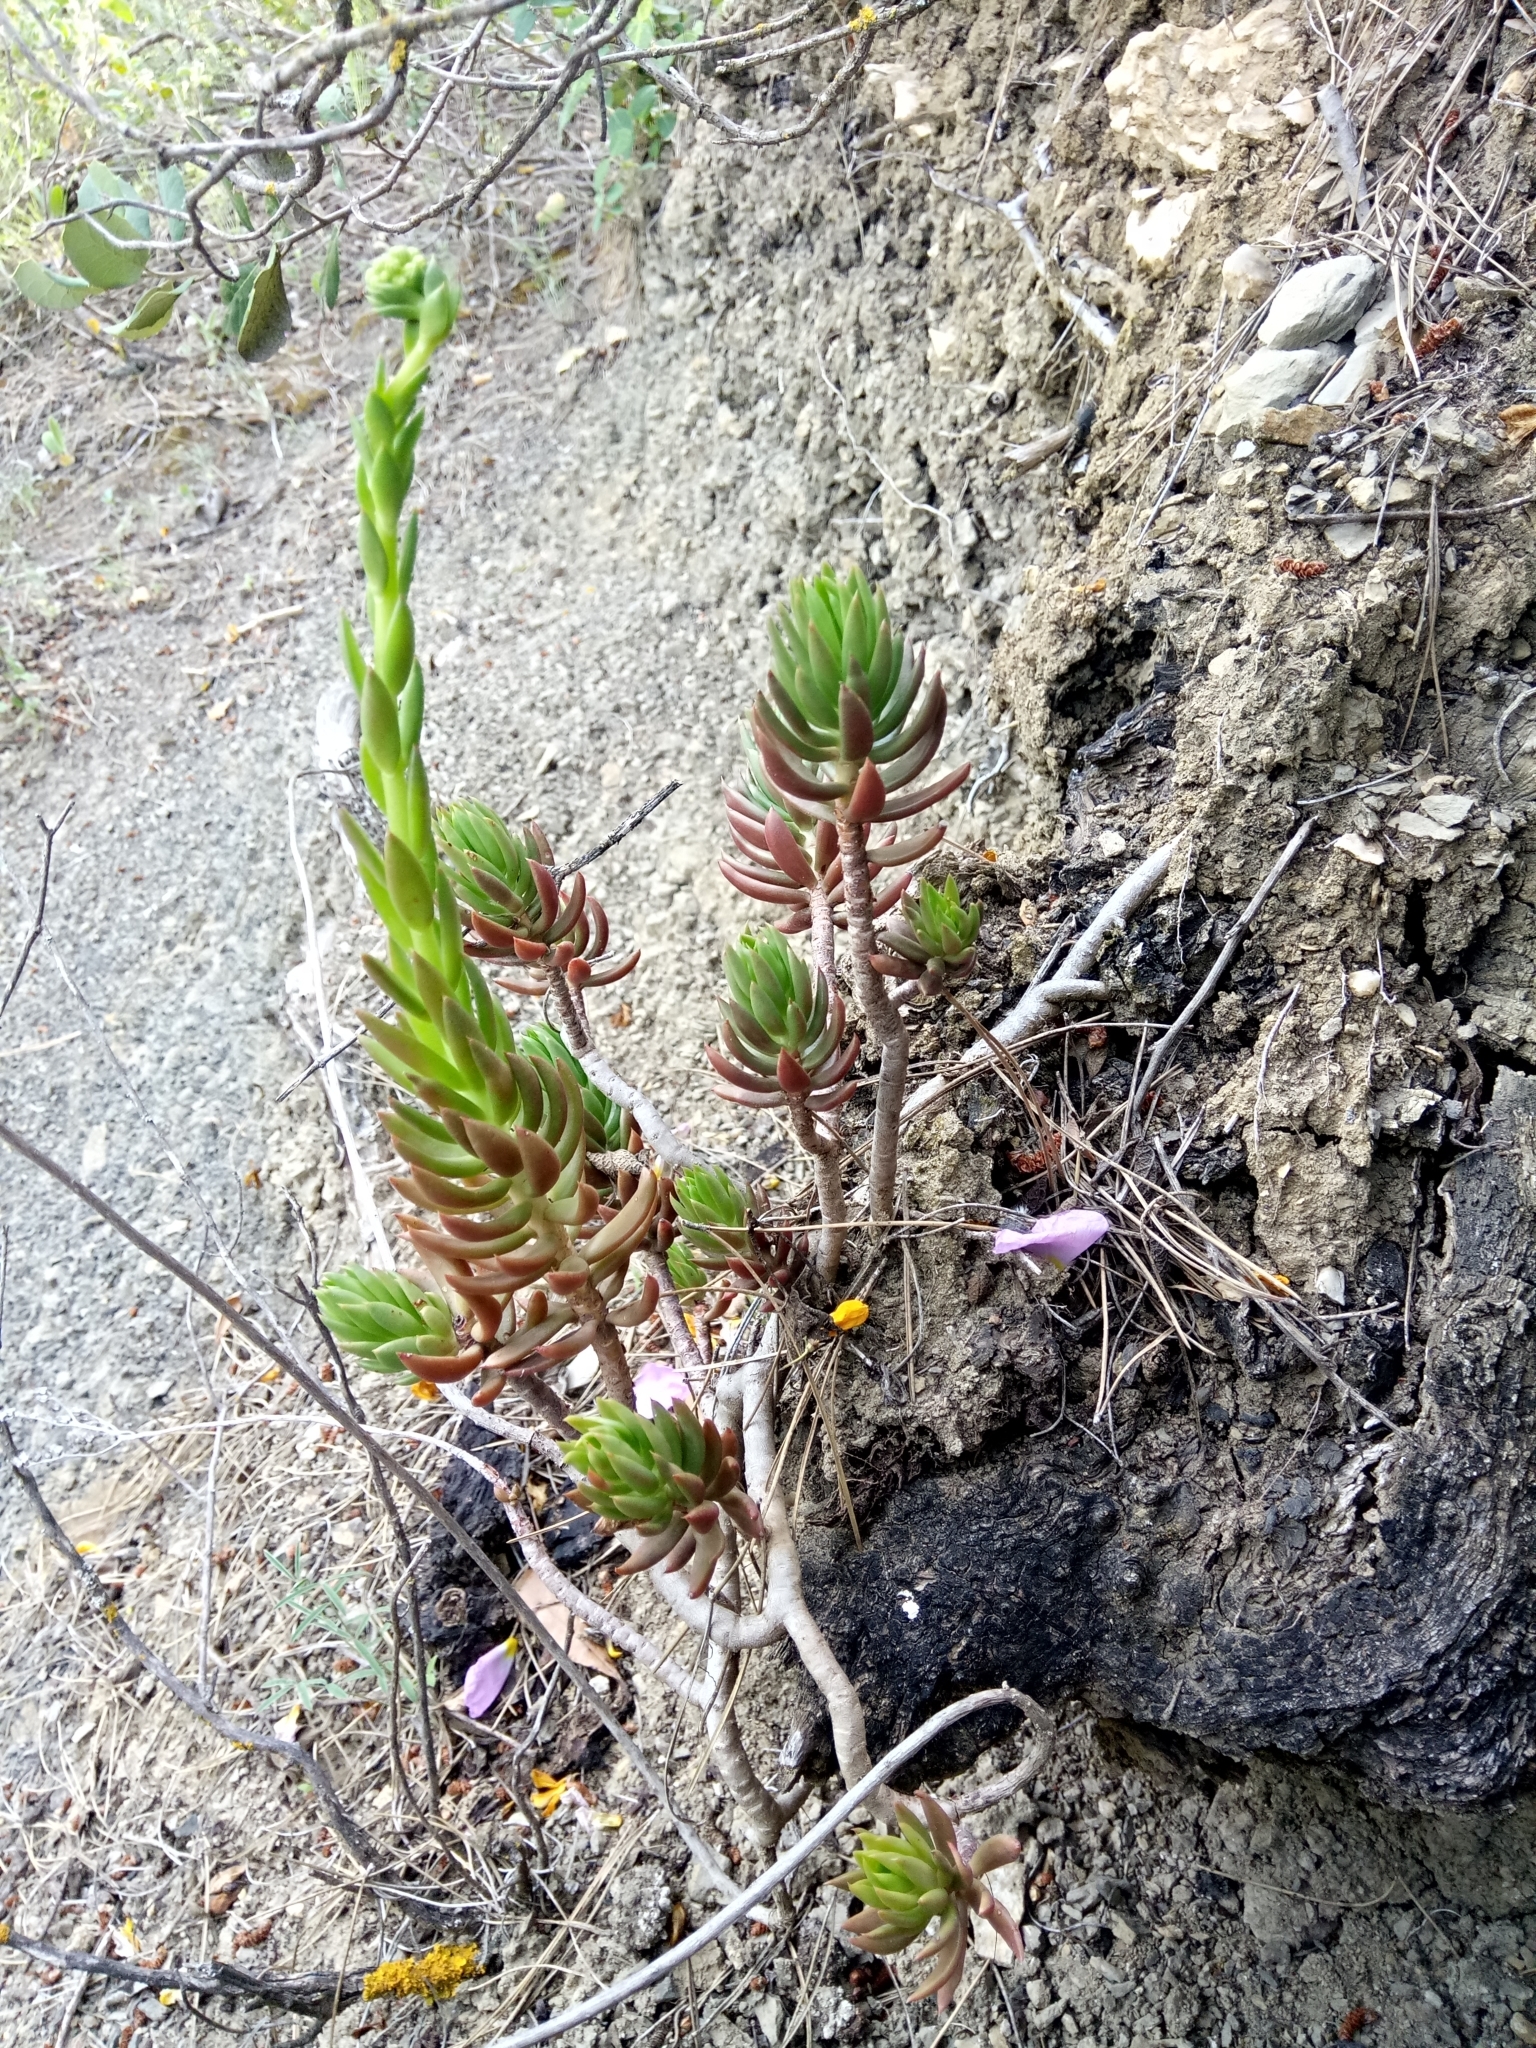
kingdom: Plantae
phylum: Tracheophyta
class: Magnoliopsida
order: Saxifragales
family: Crassulaceae
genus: Petrosedum
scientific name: Petrosedum sediforme
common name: Pale stonecrop
